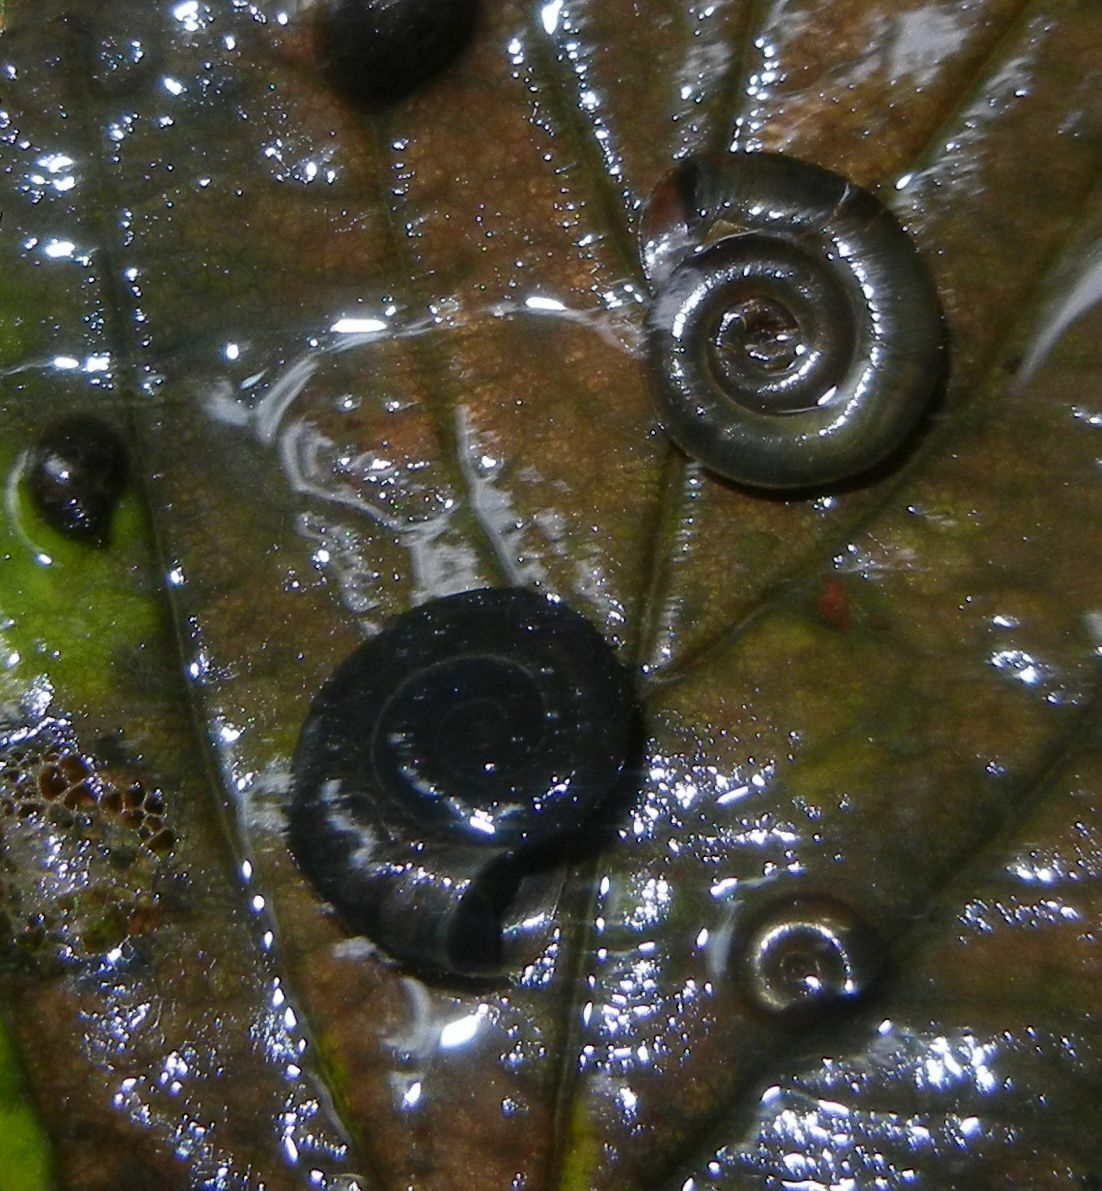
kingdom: Animalia
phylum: Mollusca
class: Gastropoda
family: Planorbidae
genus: Planorbis
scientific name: Planorbis planorbis
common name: Margined ramshorn
